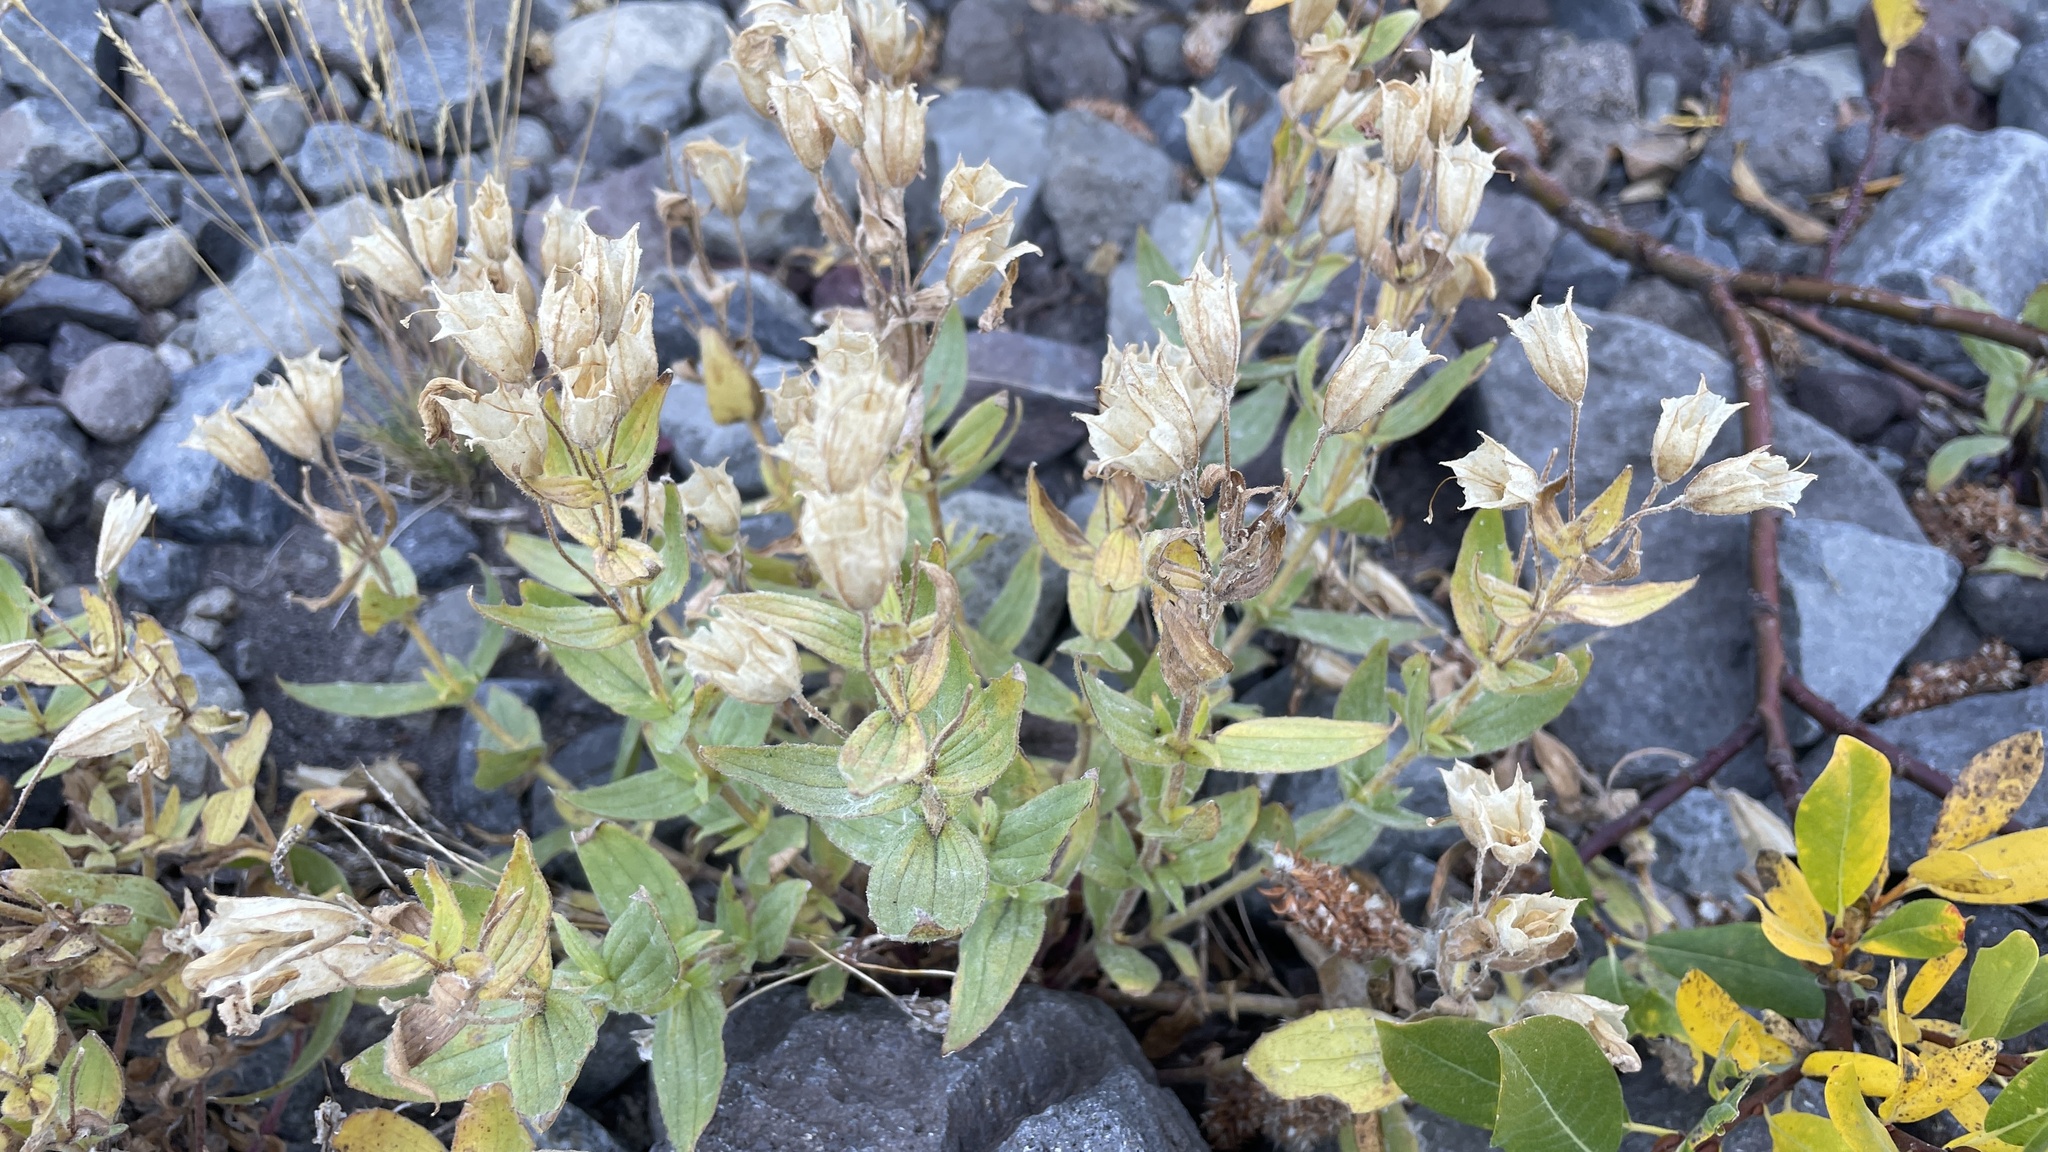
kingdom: Plantae
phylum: Tracheophyta
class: Magnoliopsida
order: Lamiales
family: Phrymaceae
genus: Erythranthe
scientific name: Erythranthe lewisii
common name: Lewis's monkey-flower
